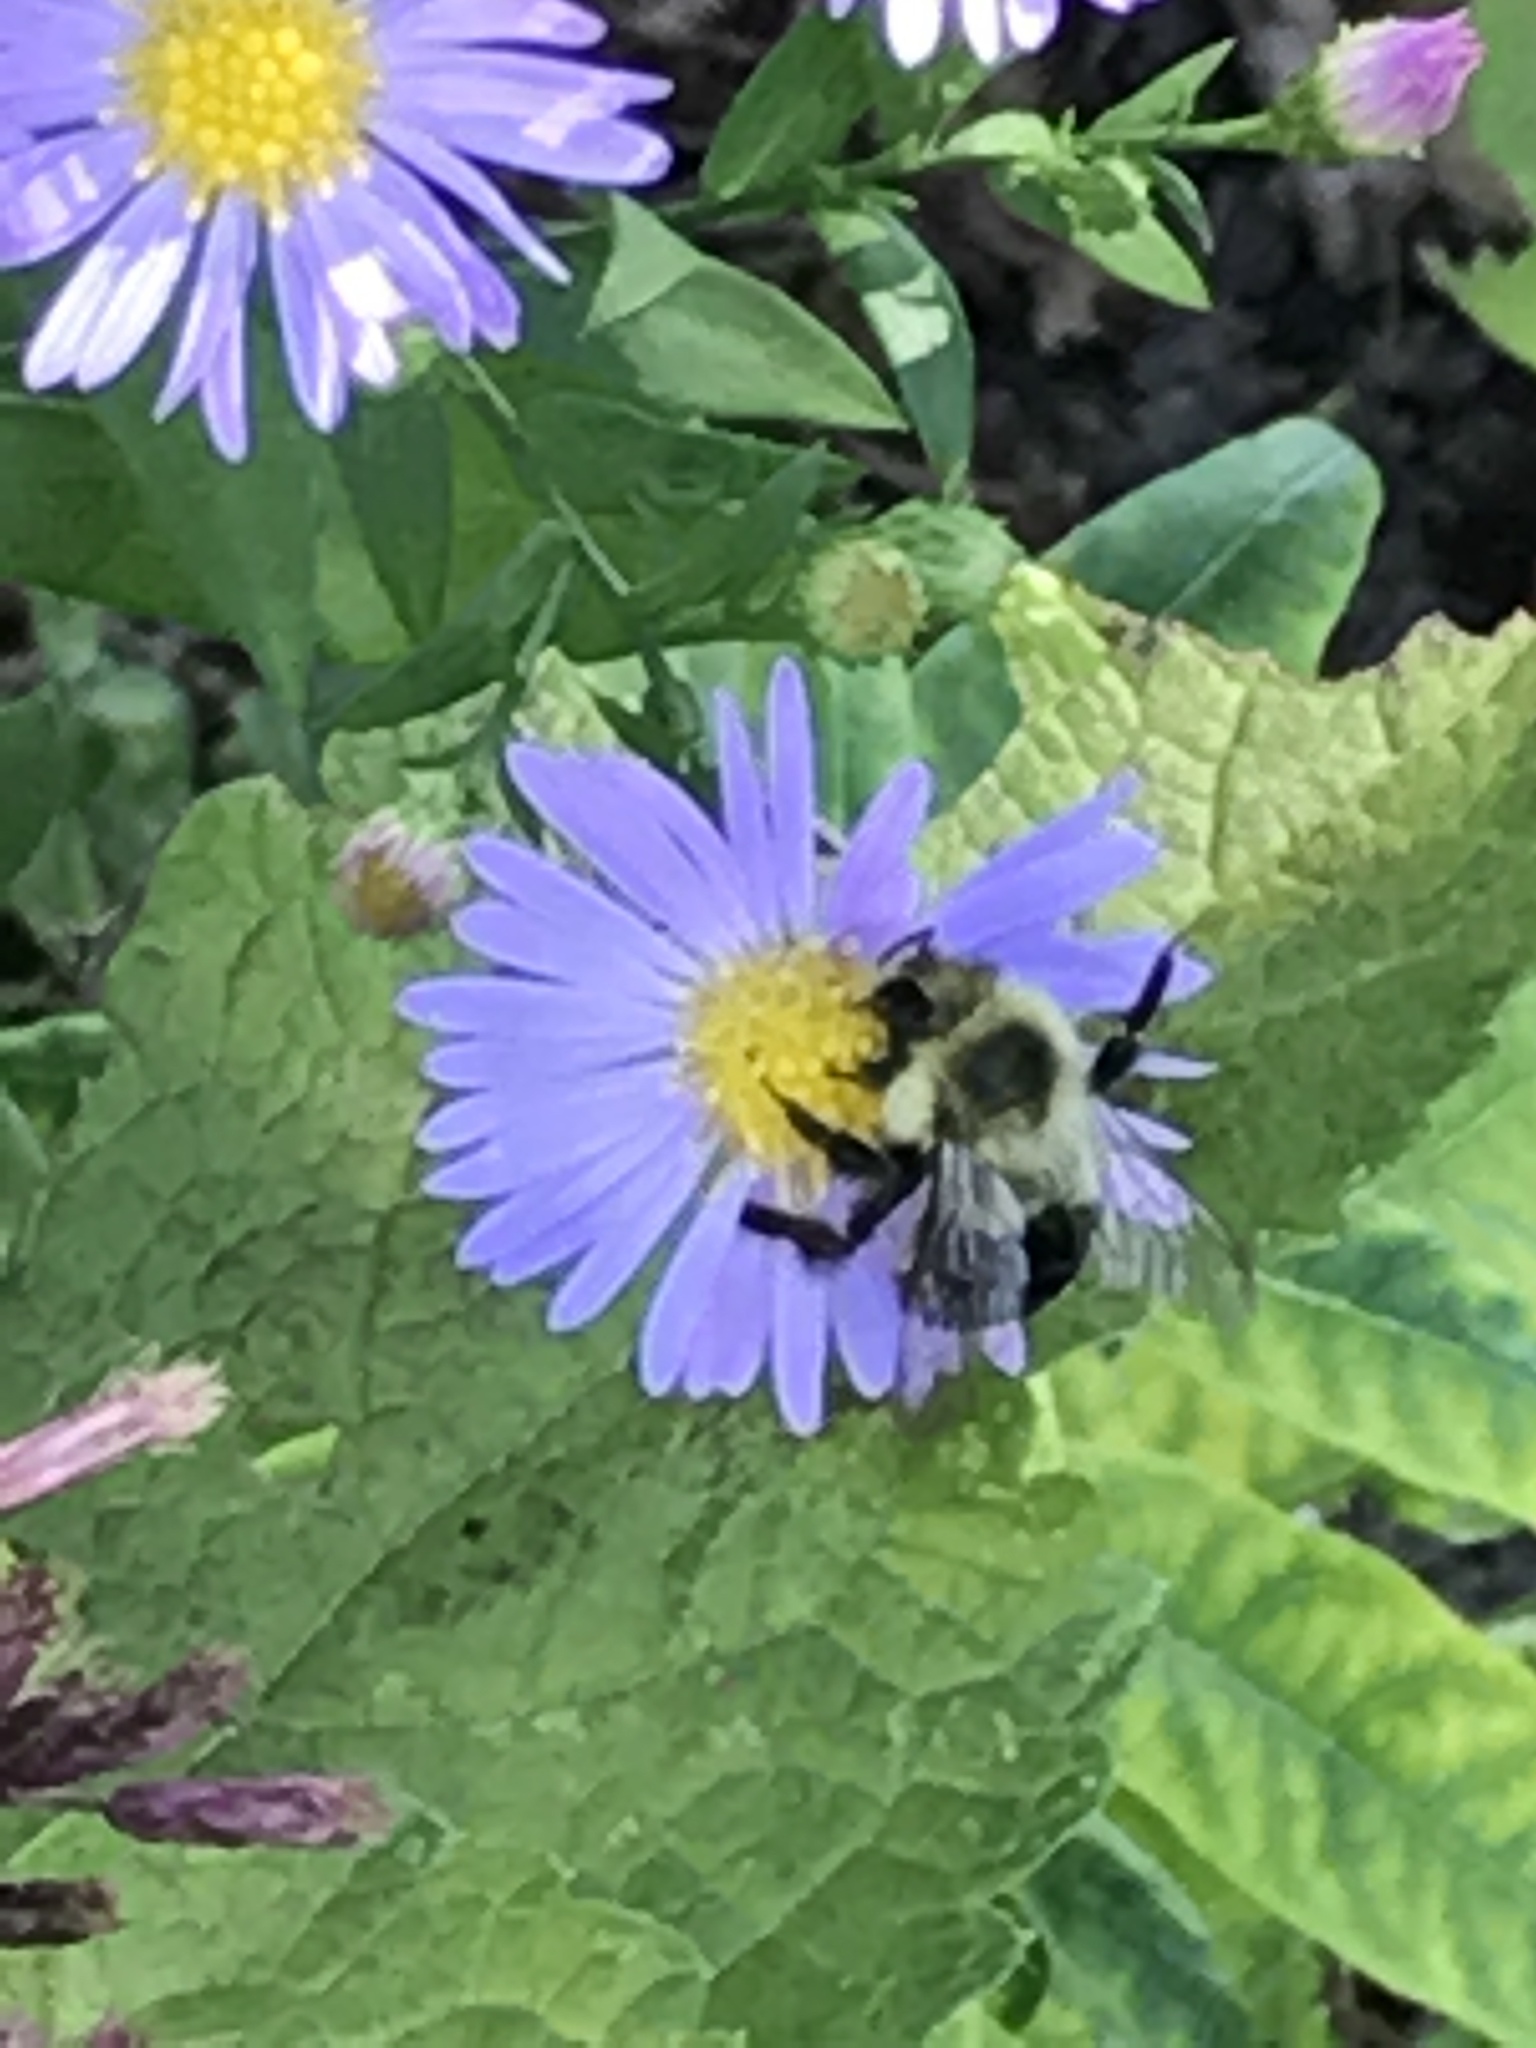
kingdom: Animalia
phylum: Arthropoda
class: Insecta
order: Hymenoptera
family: Apidae
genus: Bombus
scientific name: Bombus impatiens
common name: Common eastern bumble bee
